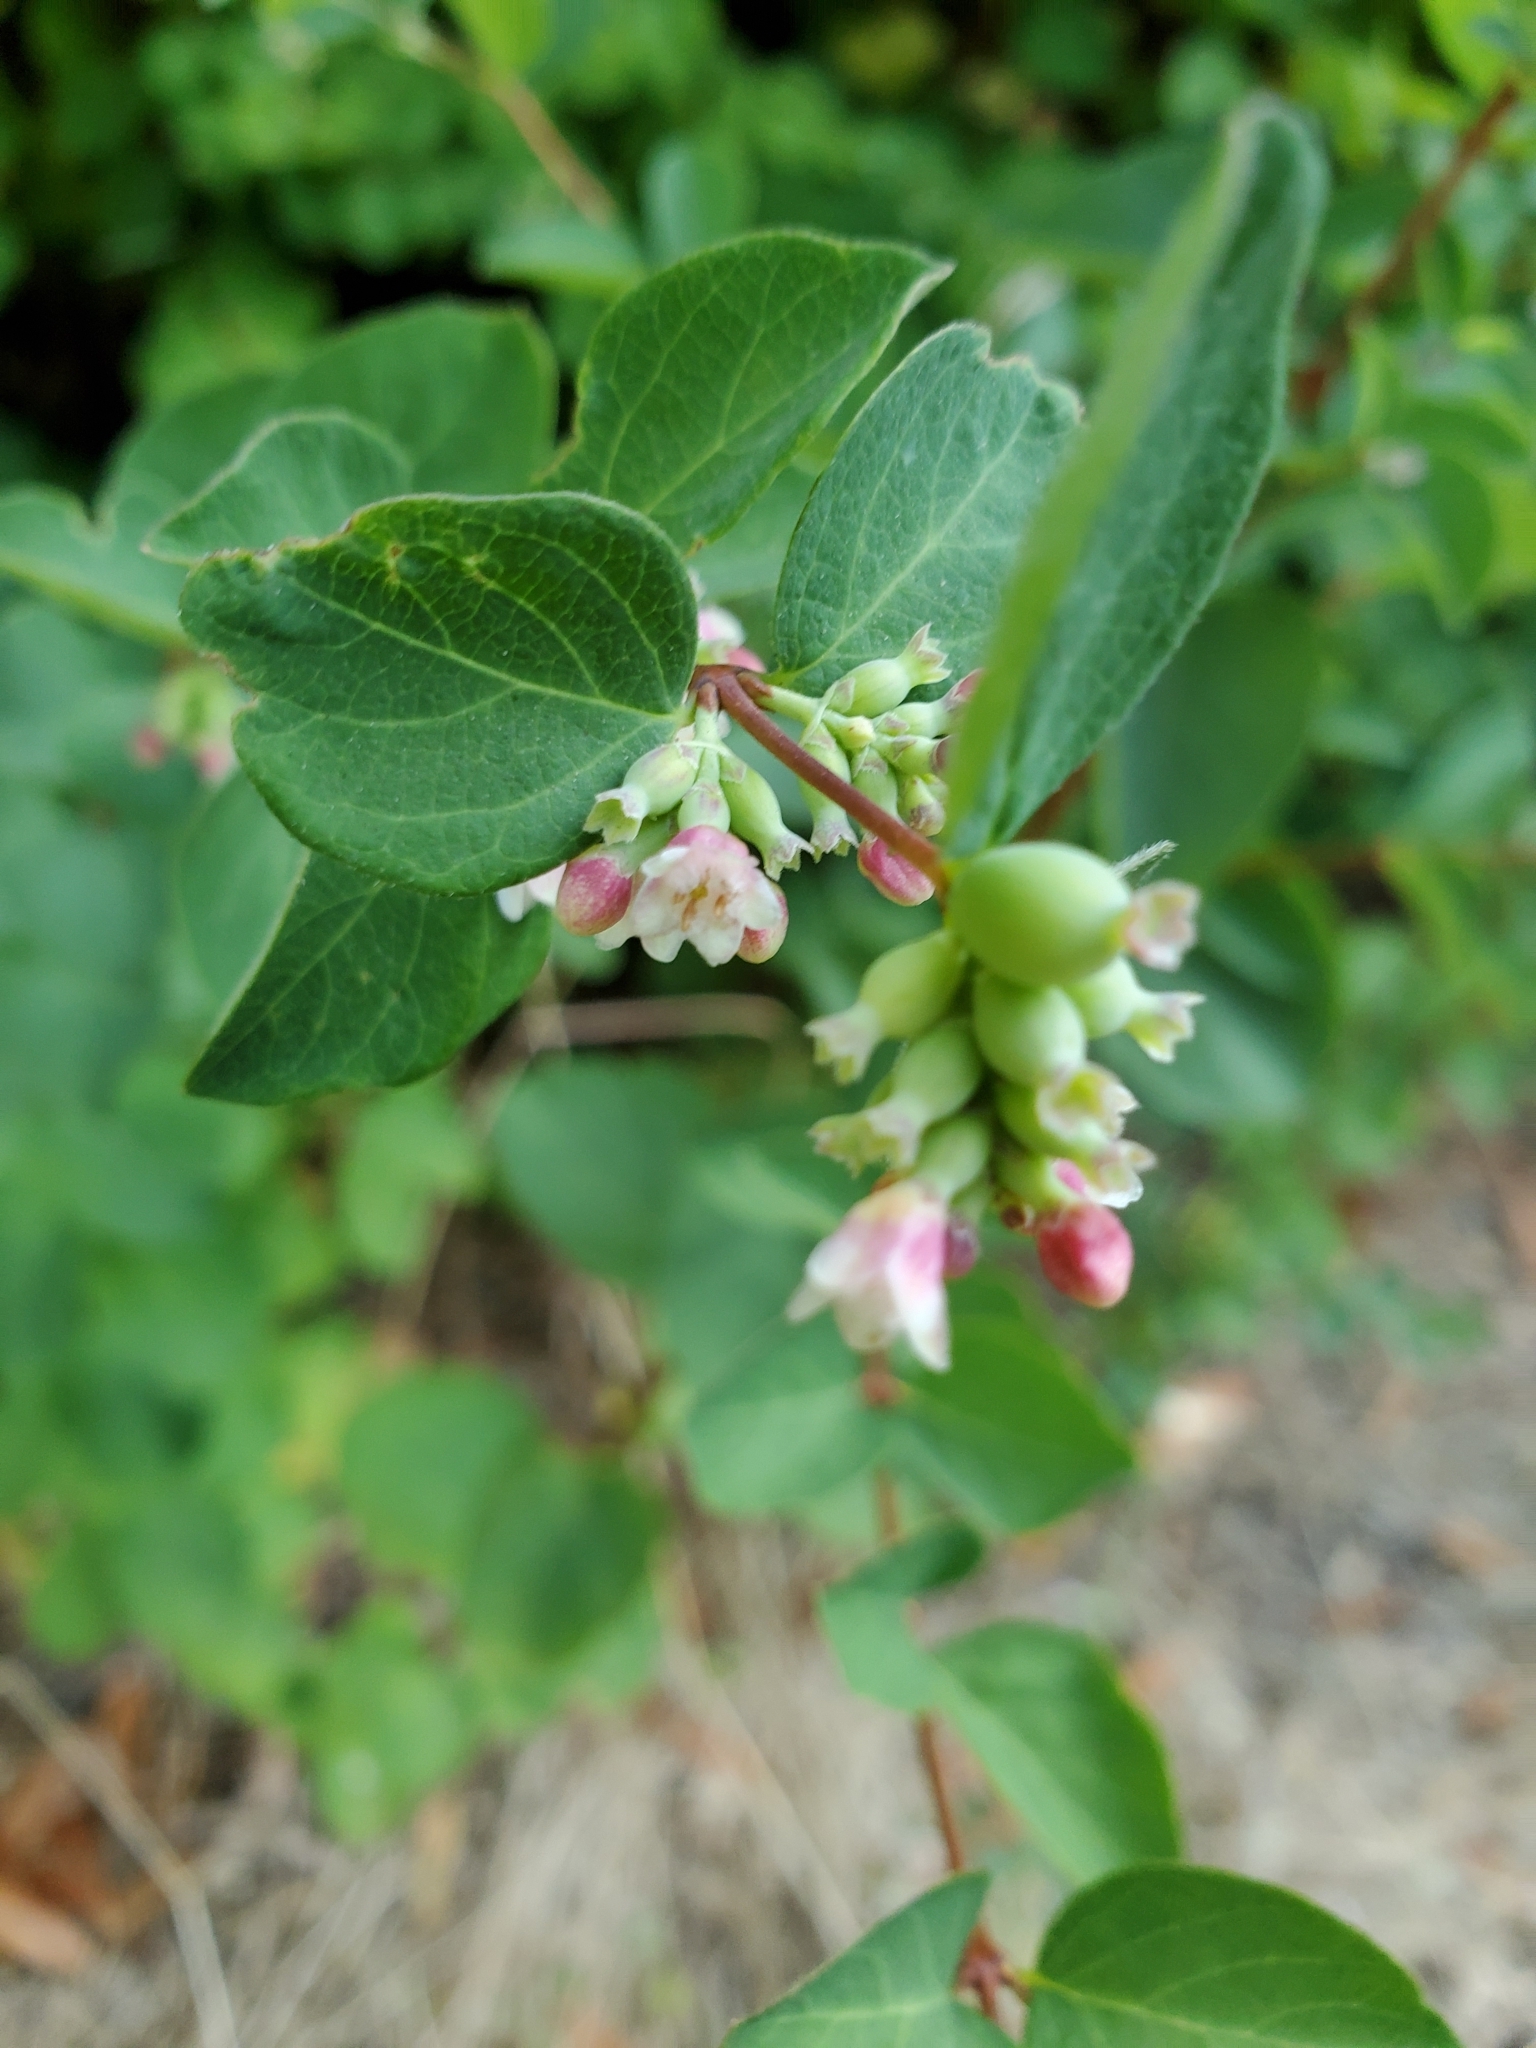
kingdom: Plantae
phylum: Tracheophyta
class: Magnoliopsida
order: Dipsacales
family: Caprifoliaceae
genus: Symphoricarpos
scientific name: Symphoricarpos albus
